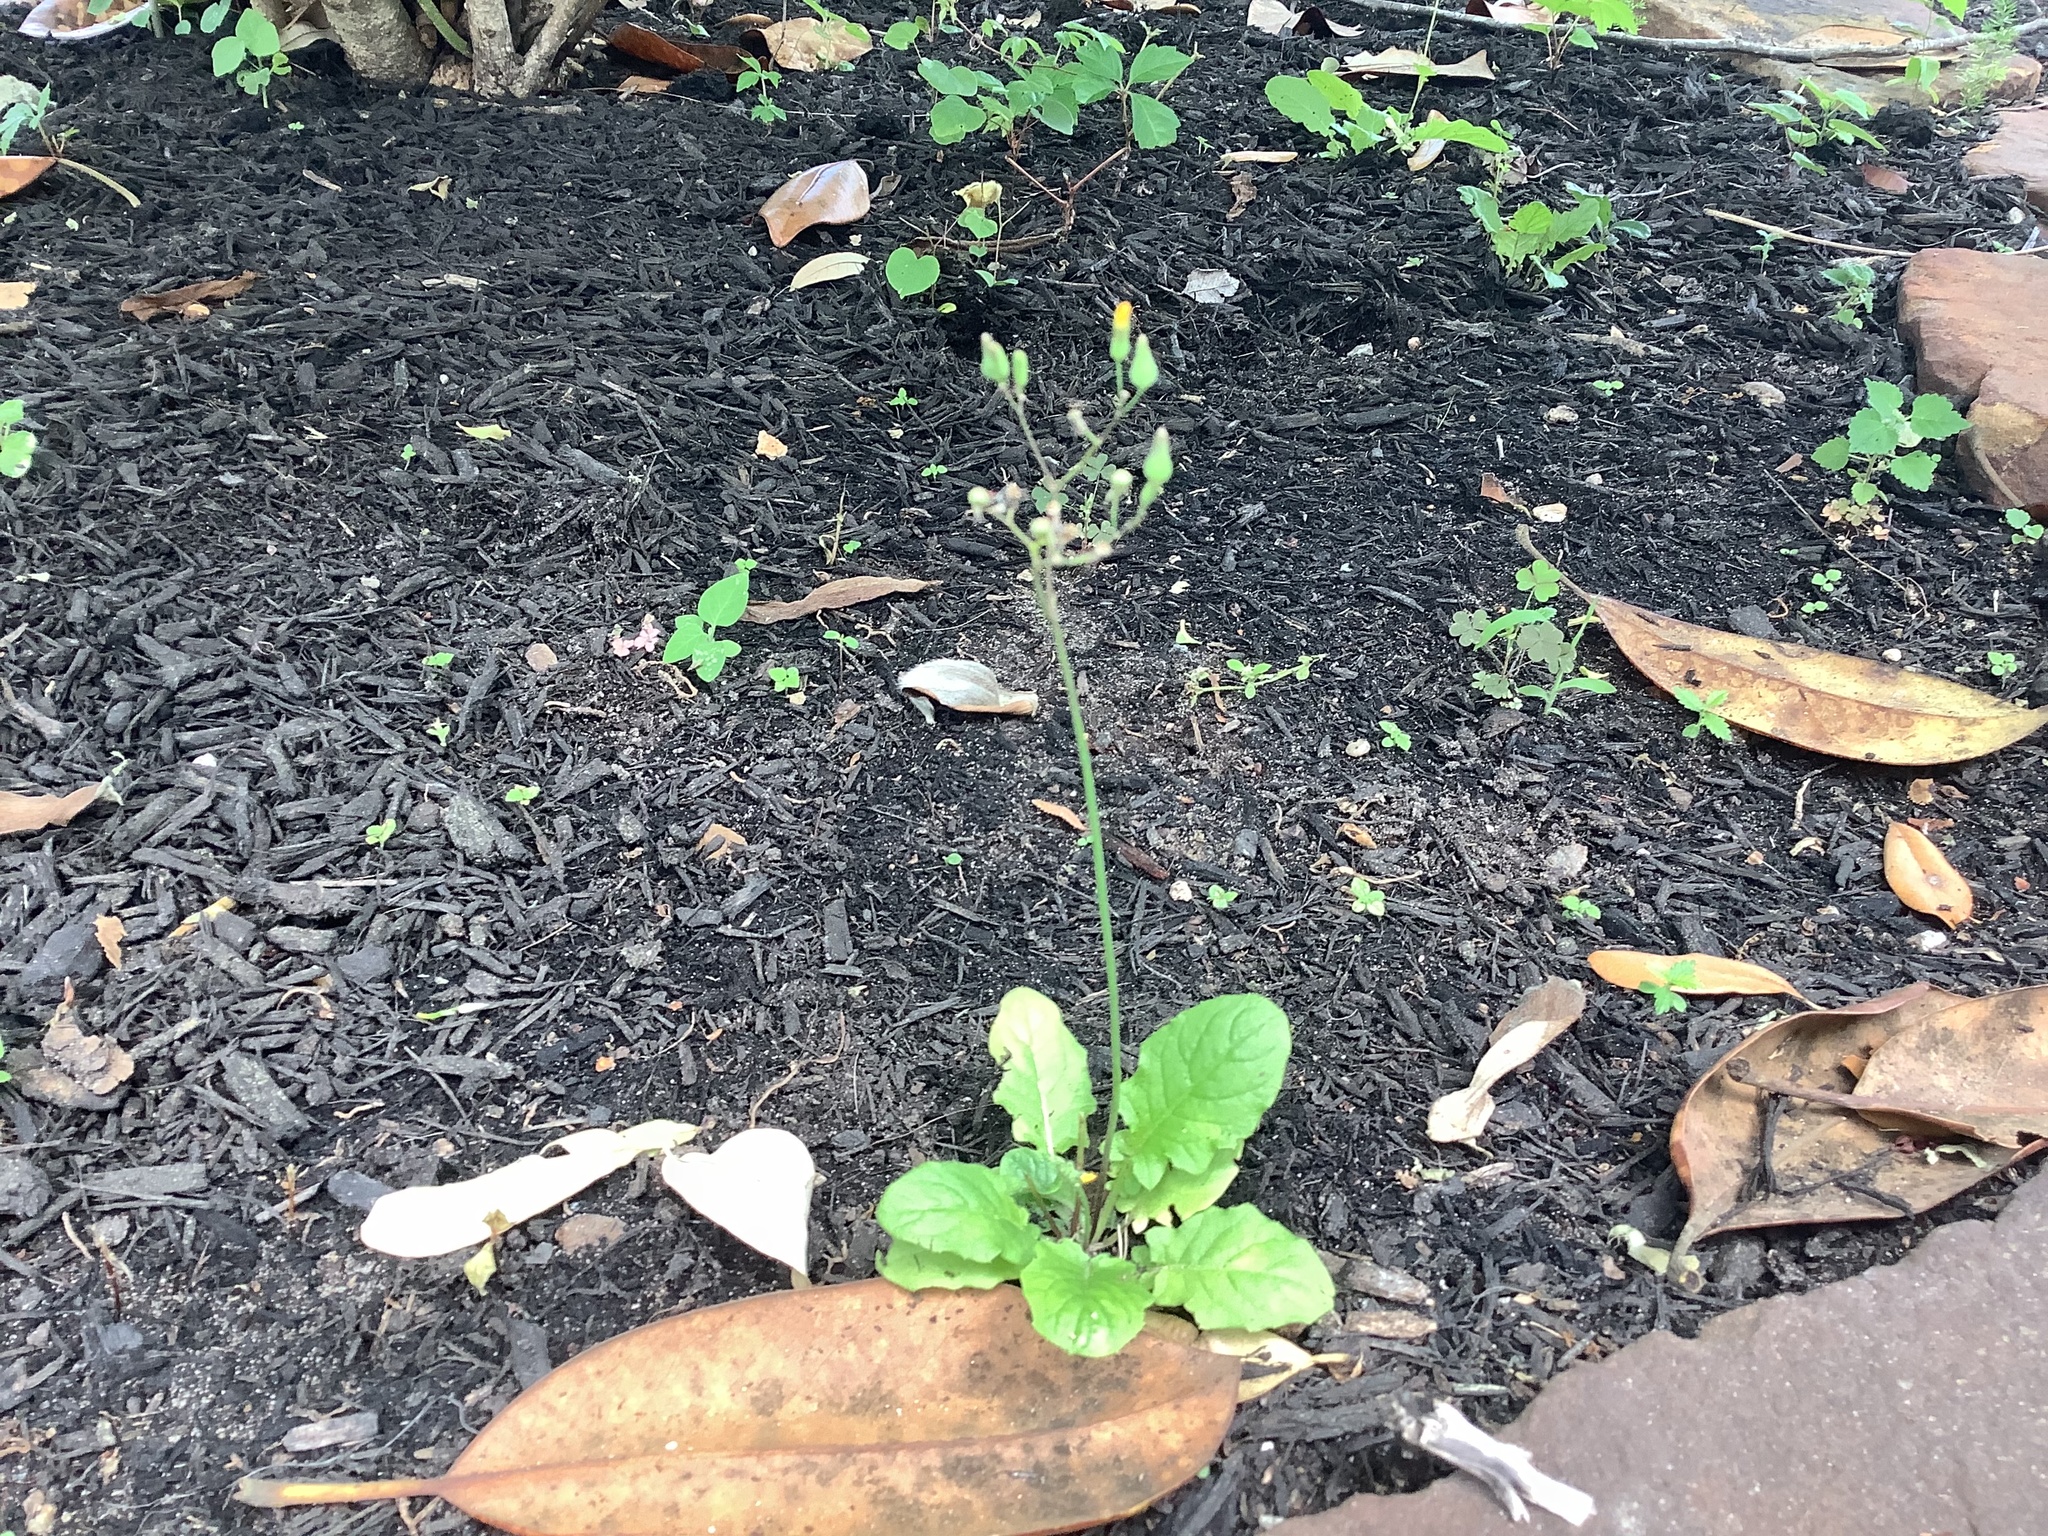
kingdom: Plantae
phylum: Tracheophyta
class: Magnoliopsida
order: Asterales
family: Asteraceae
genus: Youngia
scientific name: Youngia japonica
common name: Oriental false hawksbeard
